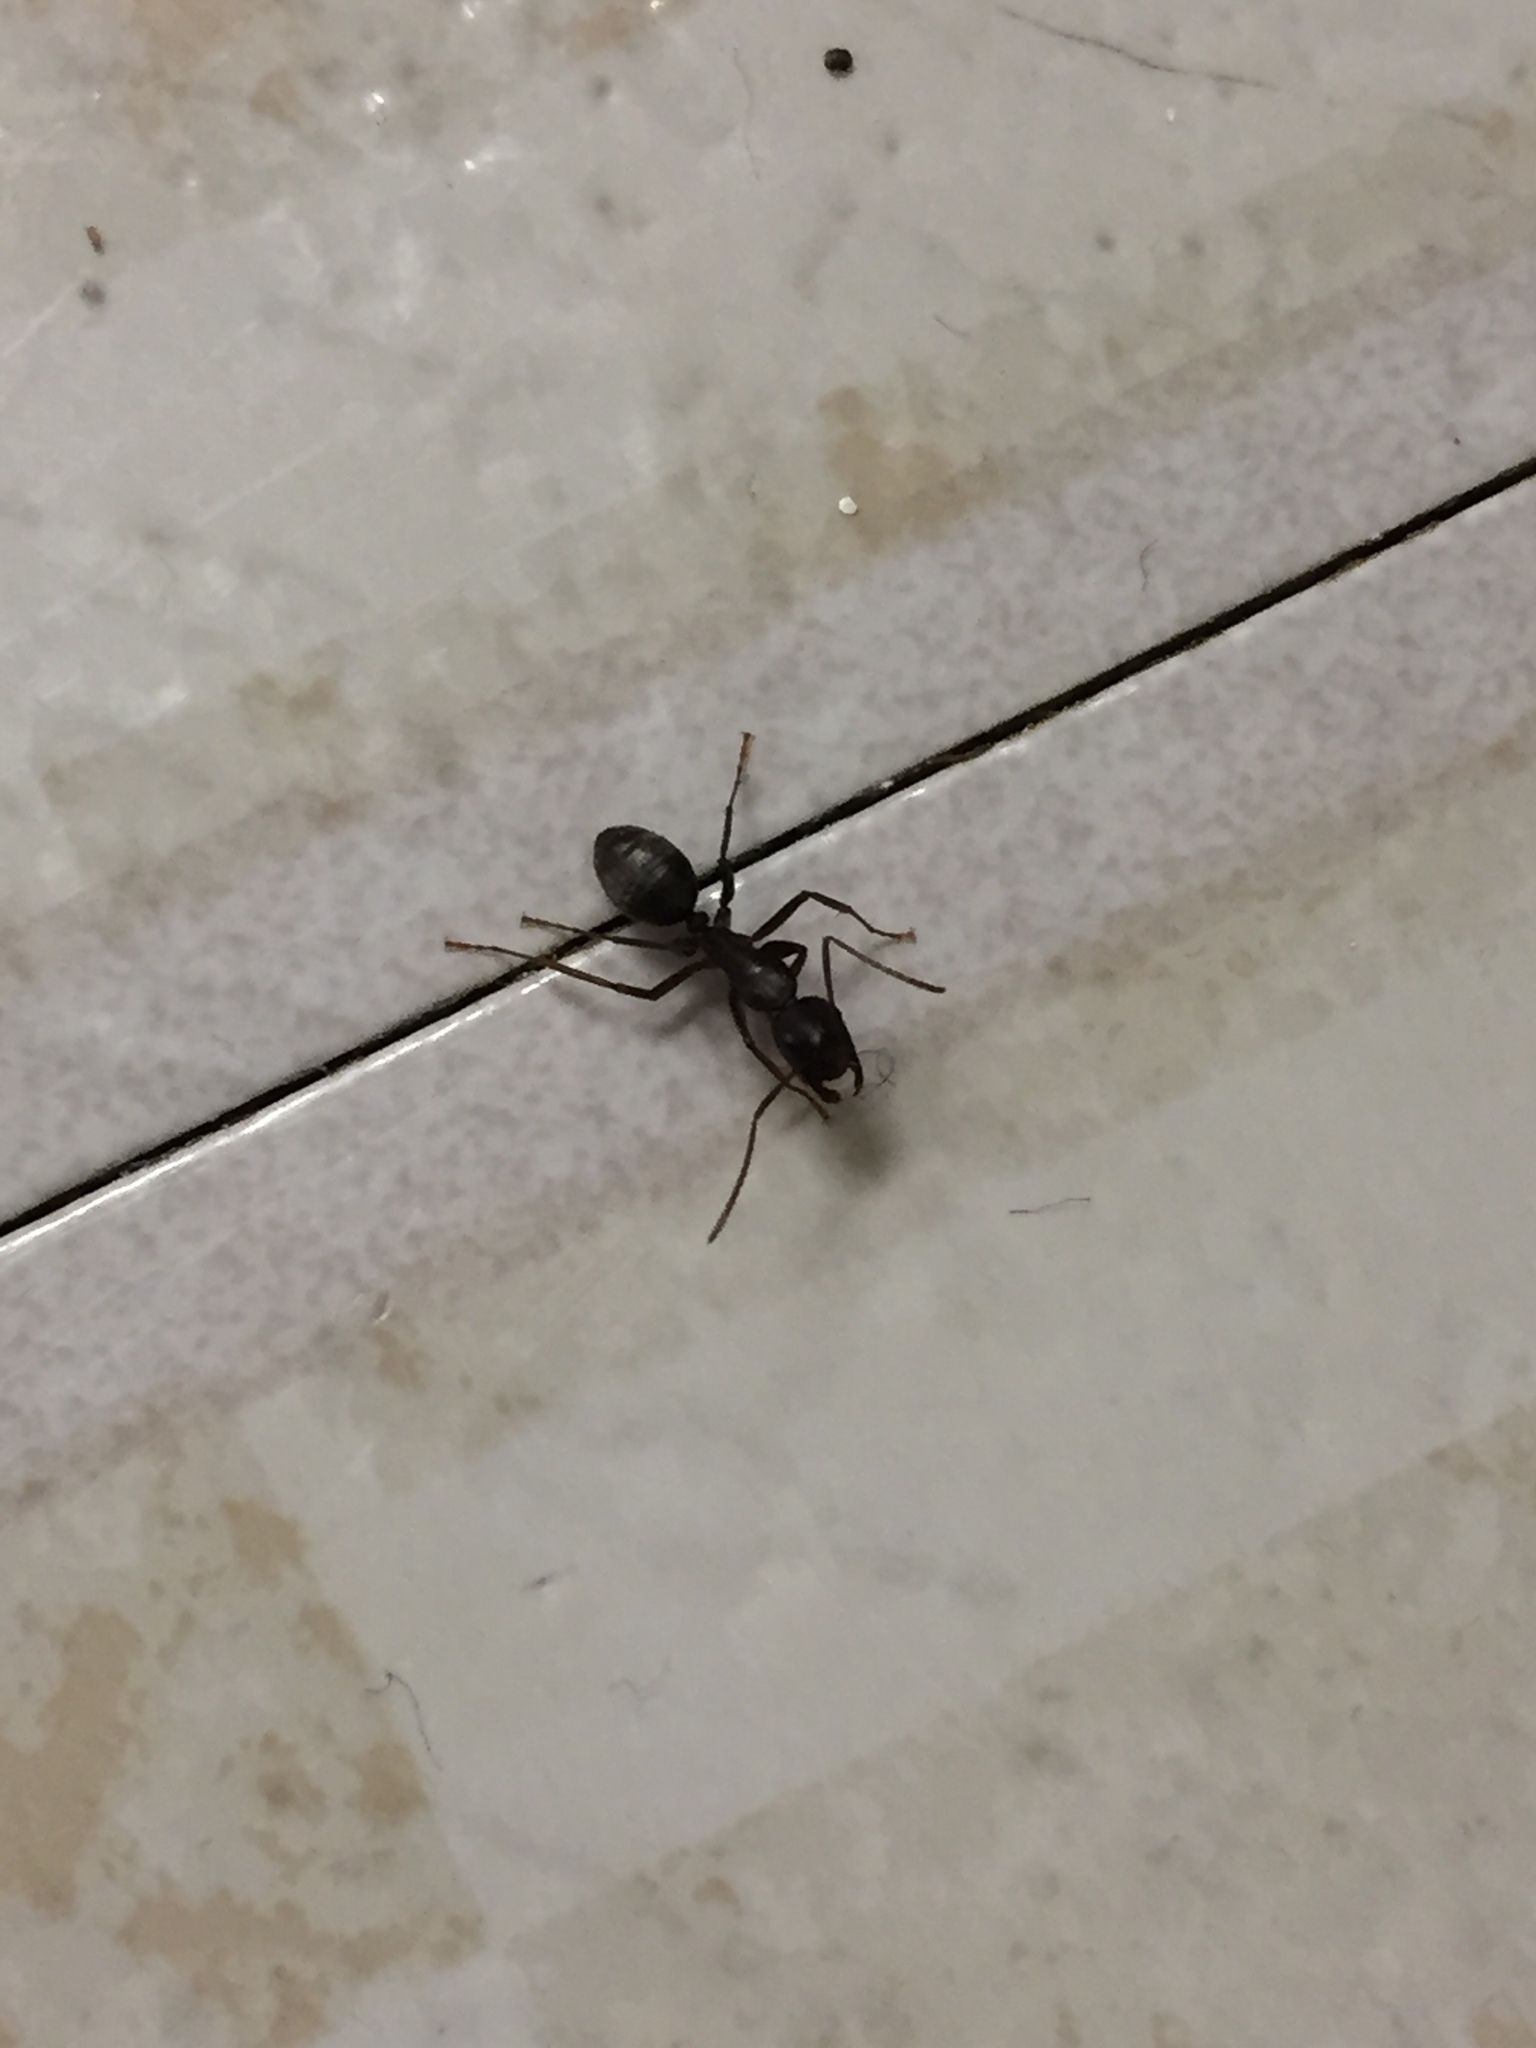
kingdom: Animalia
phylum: Arthropoda
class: Insecta
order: Hymenoptera
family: Formicidae
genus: Camponotus
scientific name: Camponotus pennsylvanicus
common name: Black carpenter ant
